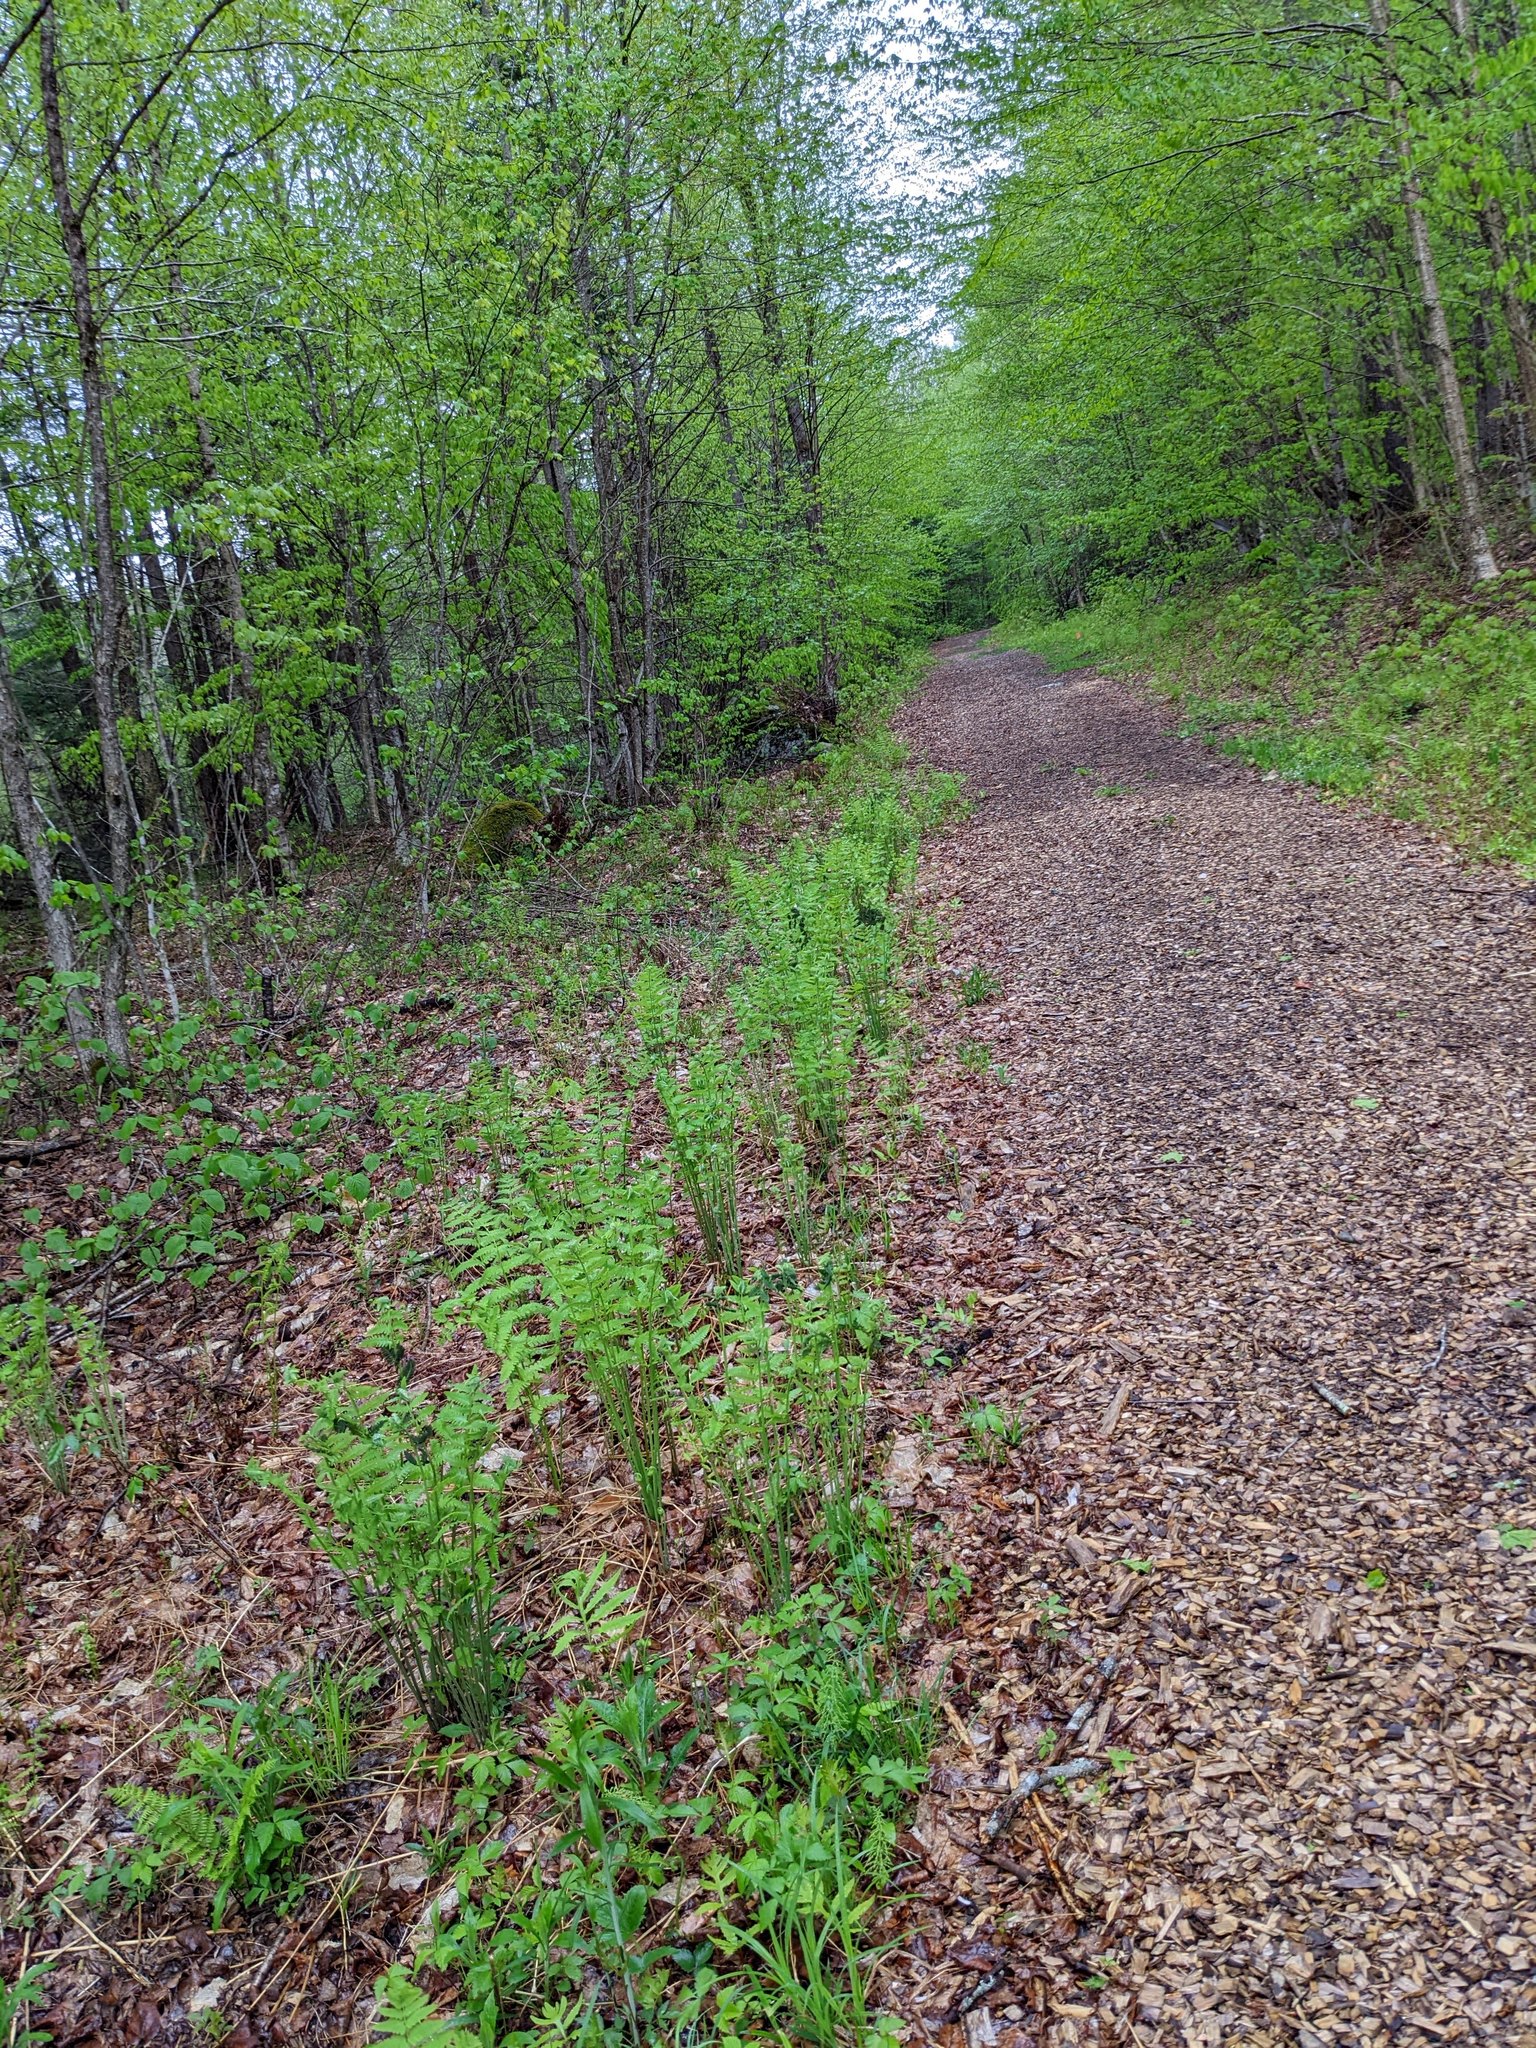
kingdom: Plantae
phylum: Tracheophyta
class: Polypodiopsida
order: Osmundales
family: Osmundaceae
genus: Claytosmunda
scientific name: Claytosmunda claytoniana
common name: Clayton's fern
